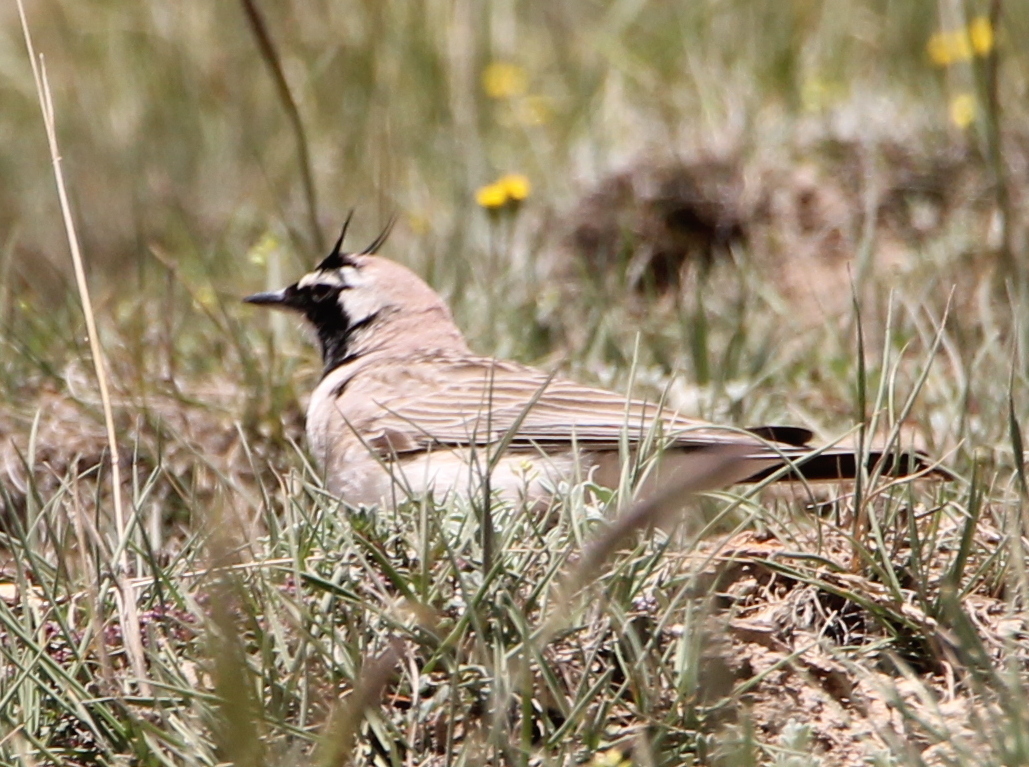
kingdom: Animalia
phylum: Chordata
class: Aves
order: Passeriformes
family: Alaudidae
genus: Eremophila
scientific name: Eremophila alpestris
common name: Horned lark
